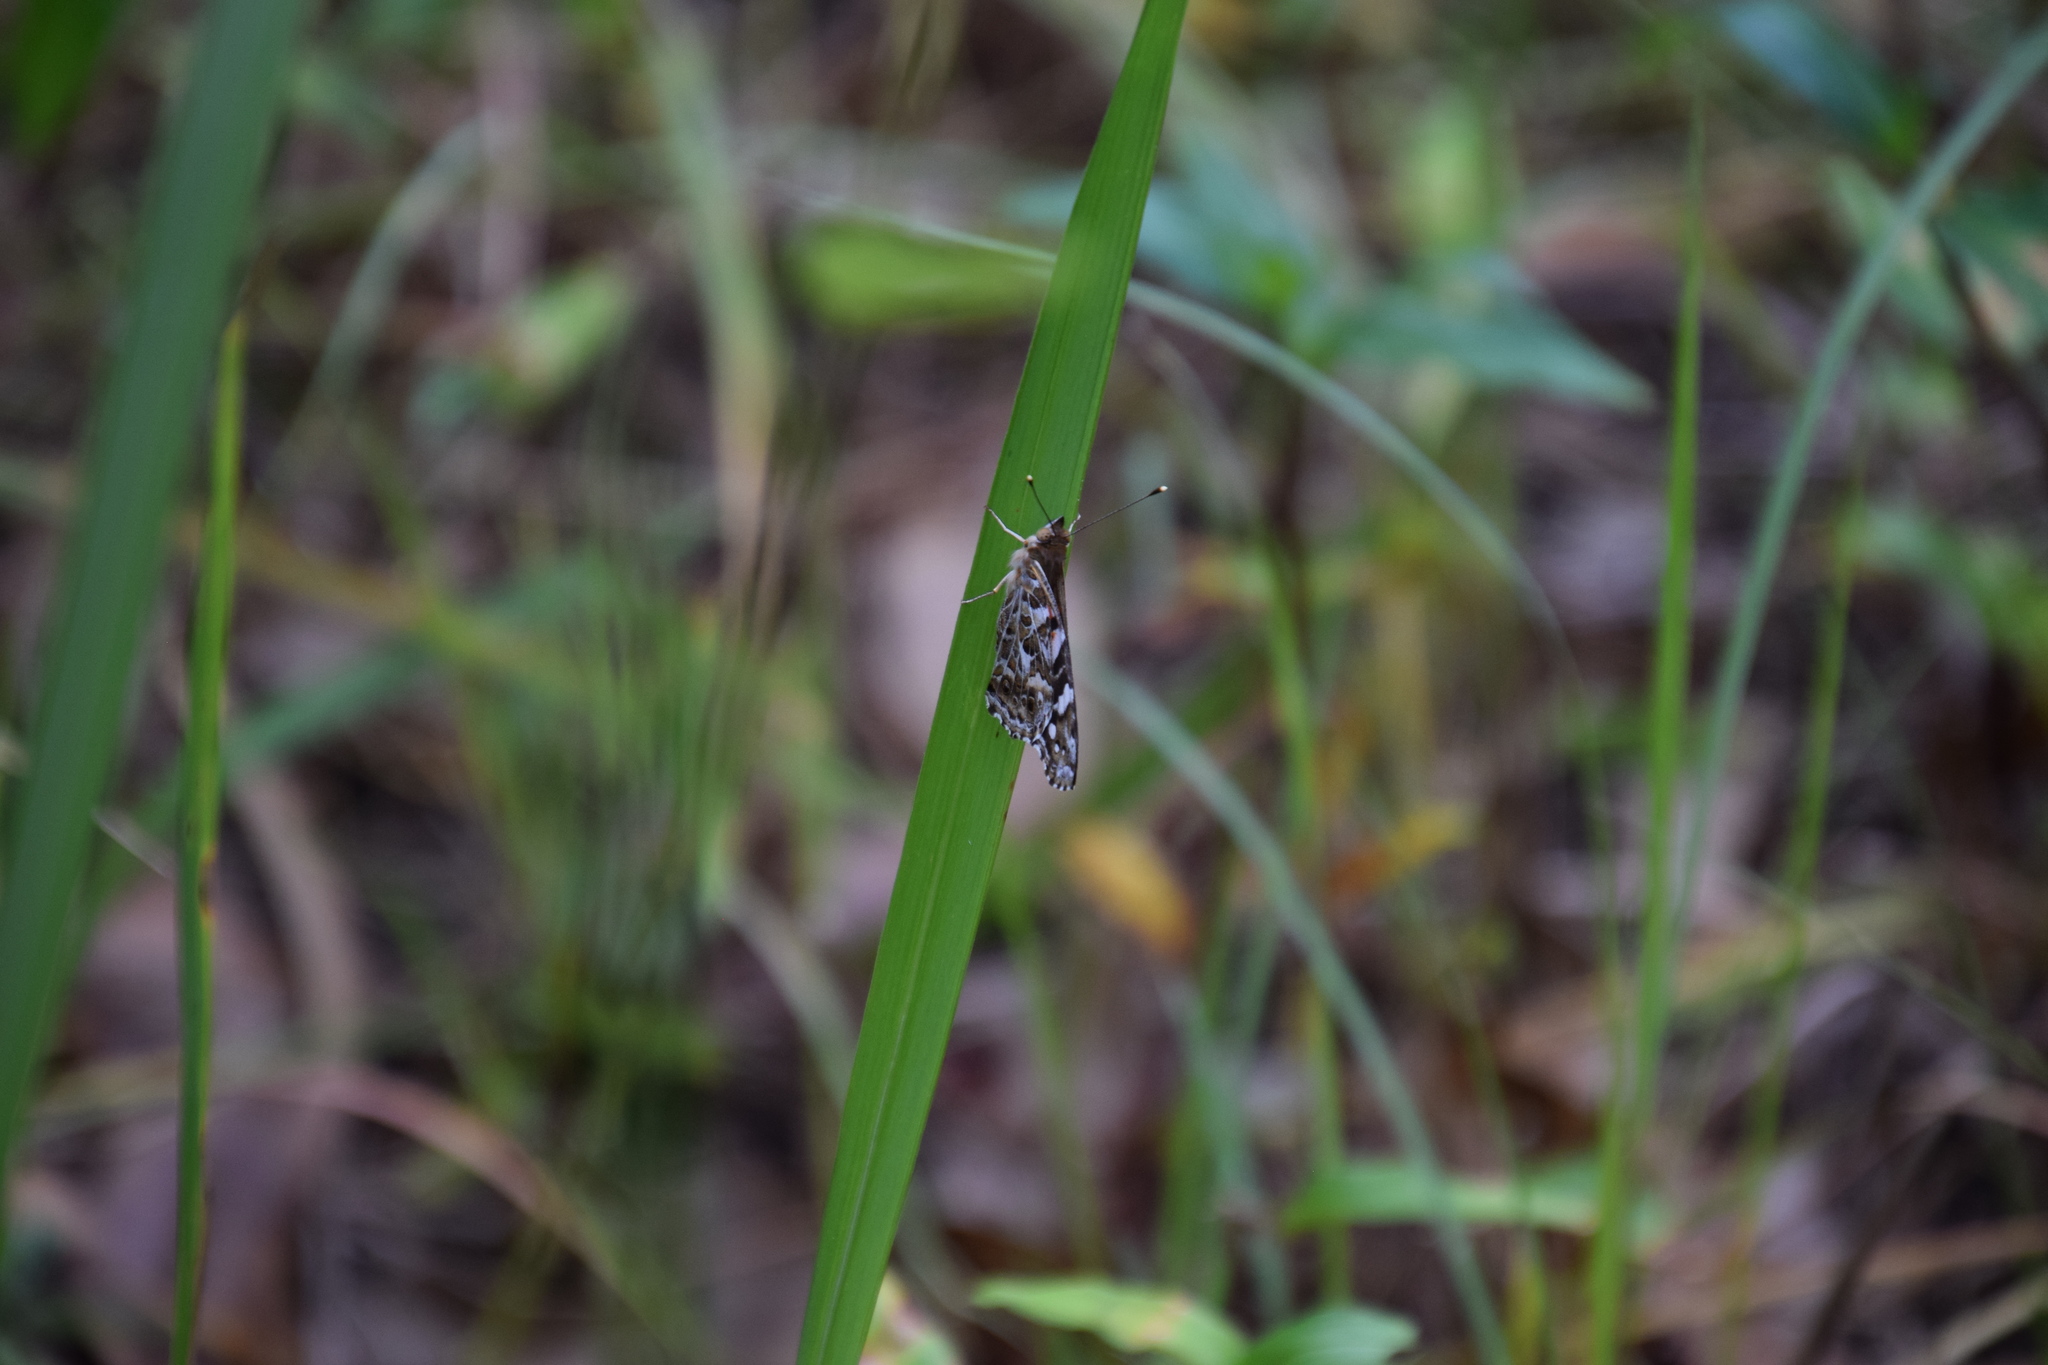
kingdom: Animalia
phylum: Arthropoda
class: Insecta
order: Lepidoptera
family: Nymphalidae
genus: Vanessa
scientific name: Vanessa kershawi
